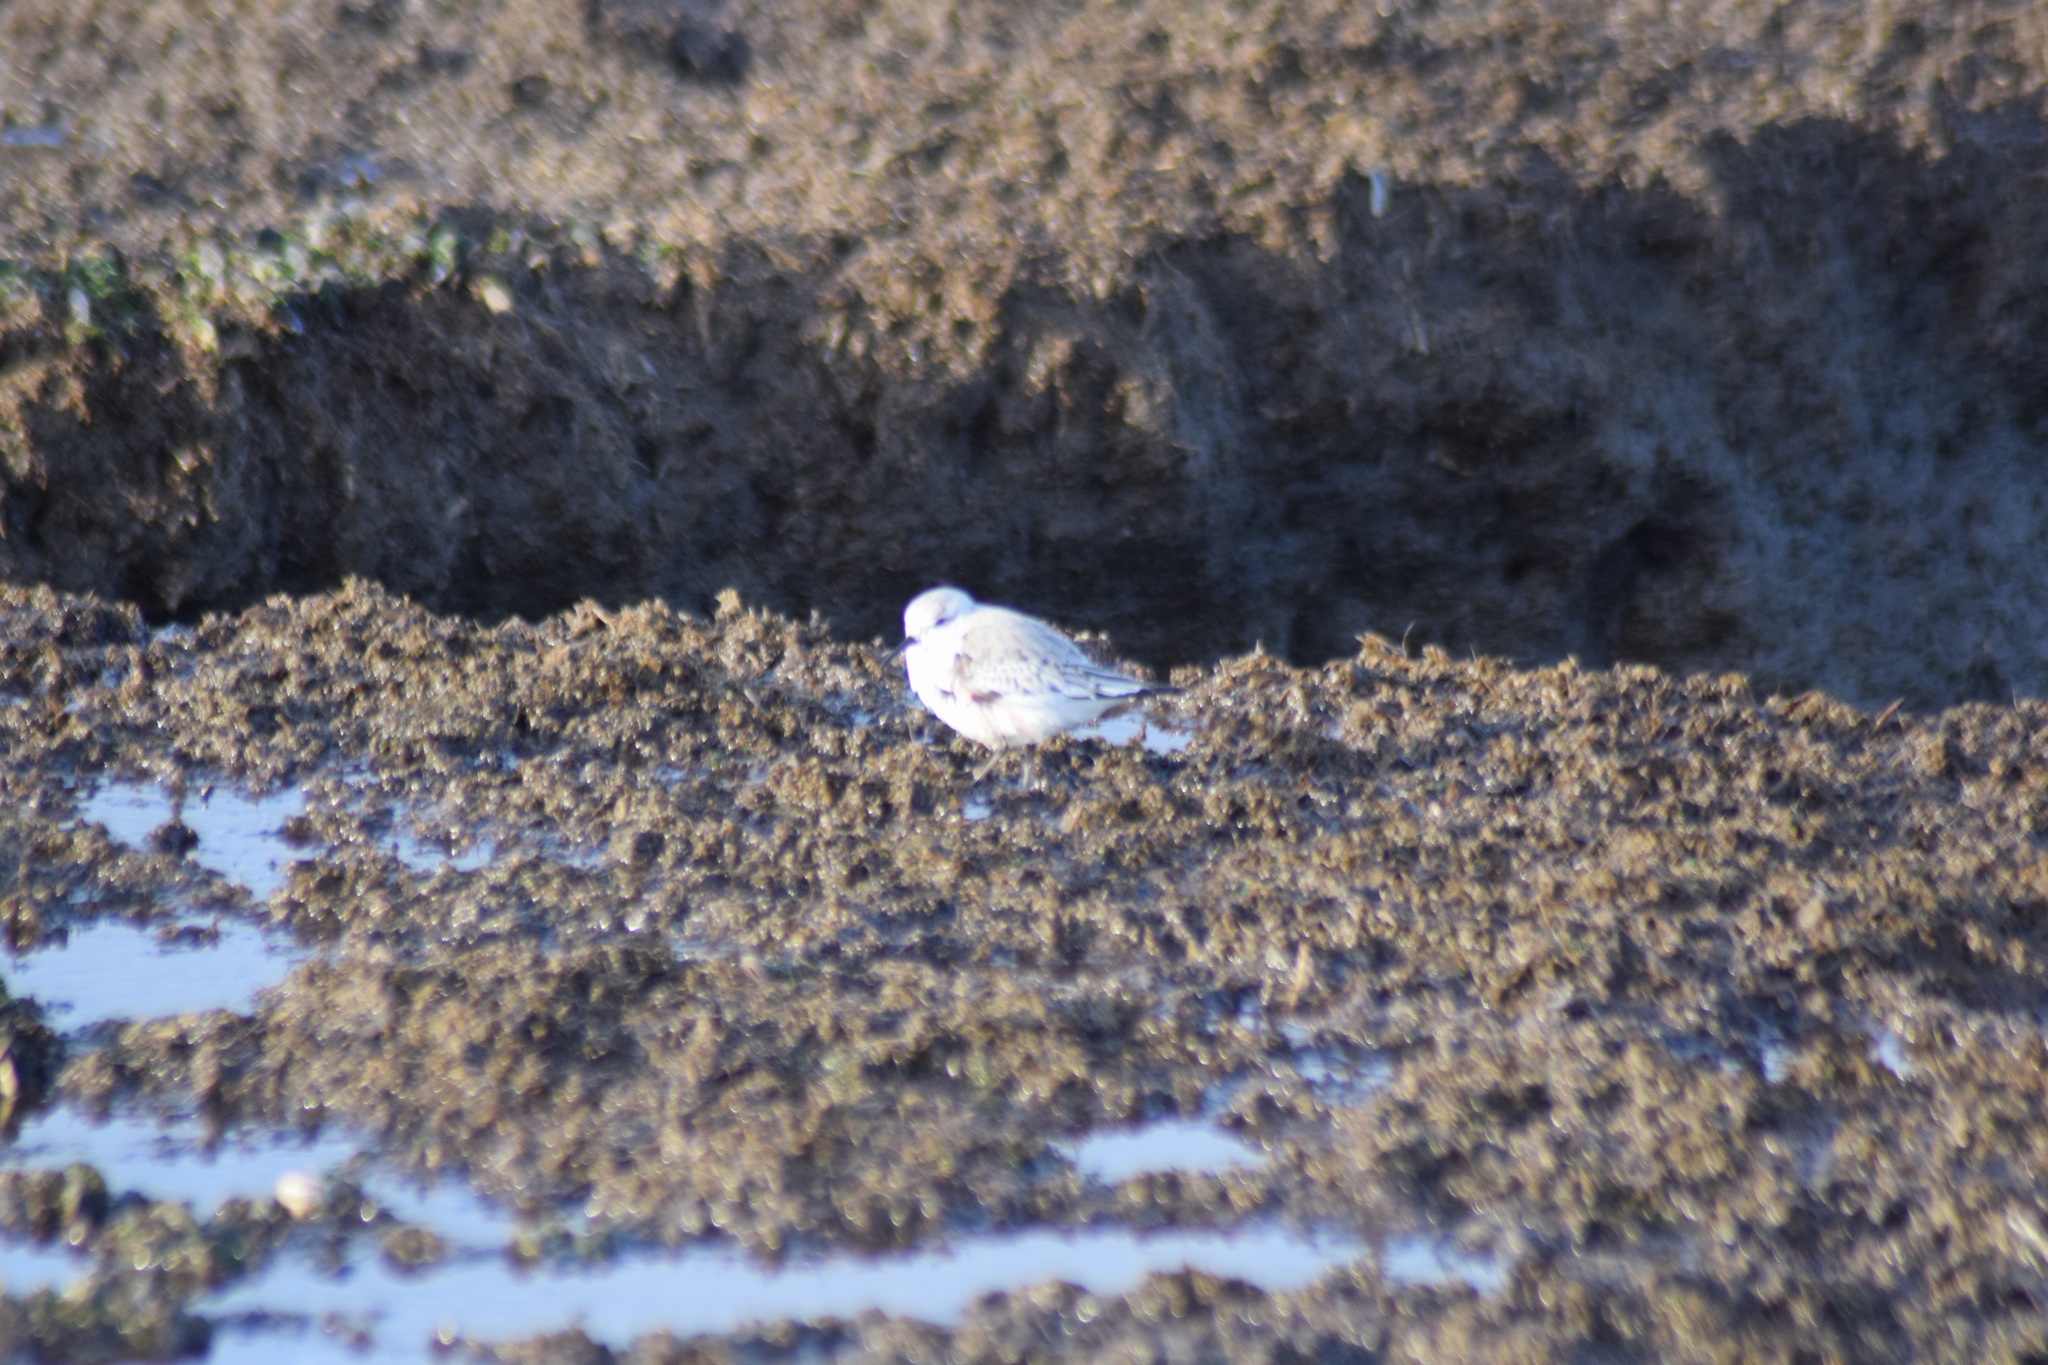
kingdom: Animalia
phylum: Chordata
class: Aves
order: Charadriiformes
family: Scolopacidae
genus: Calidris
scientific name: Calidris alba
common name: Sanderling
